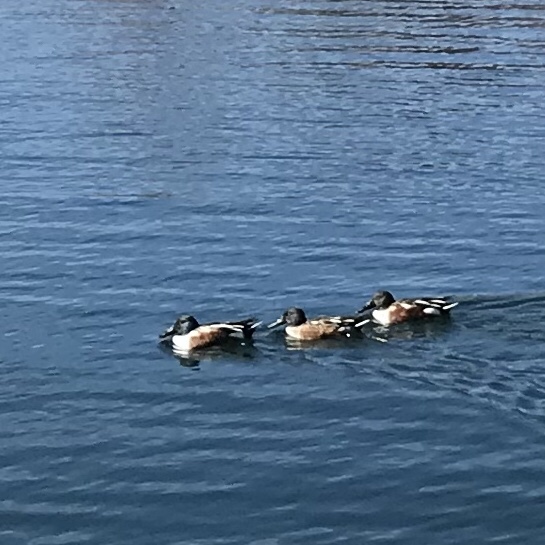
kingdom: Animalia
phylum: Chordata
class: Aves
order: Anseriformes
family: Anatidae
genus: Spatula
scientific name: Spatula clypeata
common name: Northern shoveler
